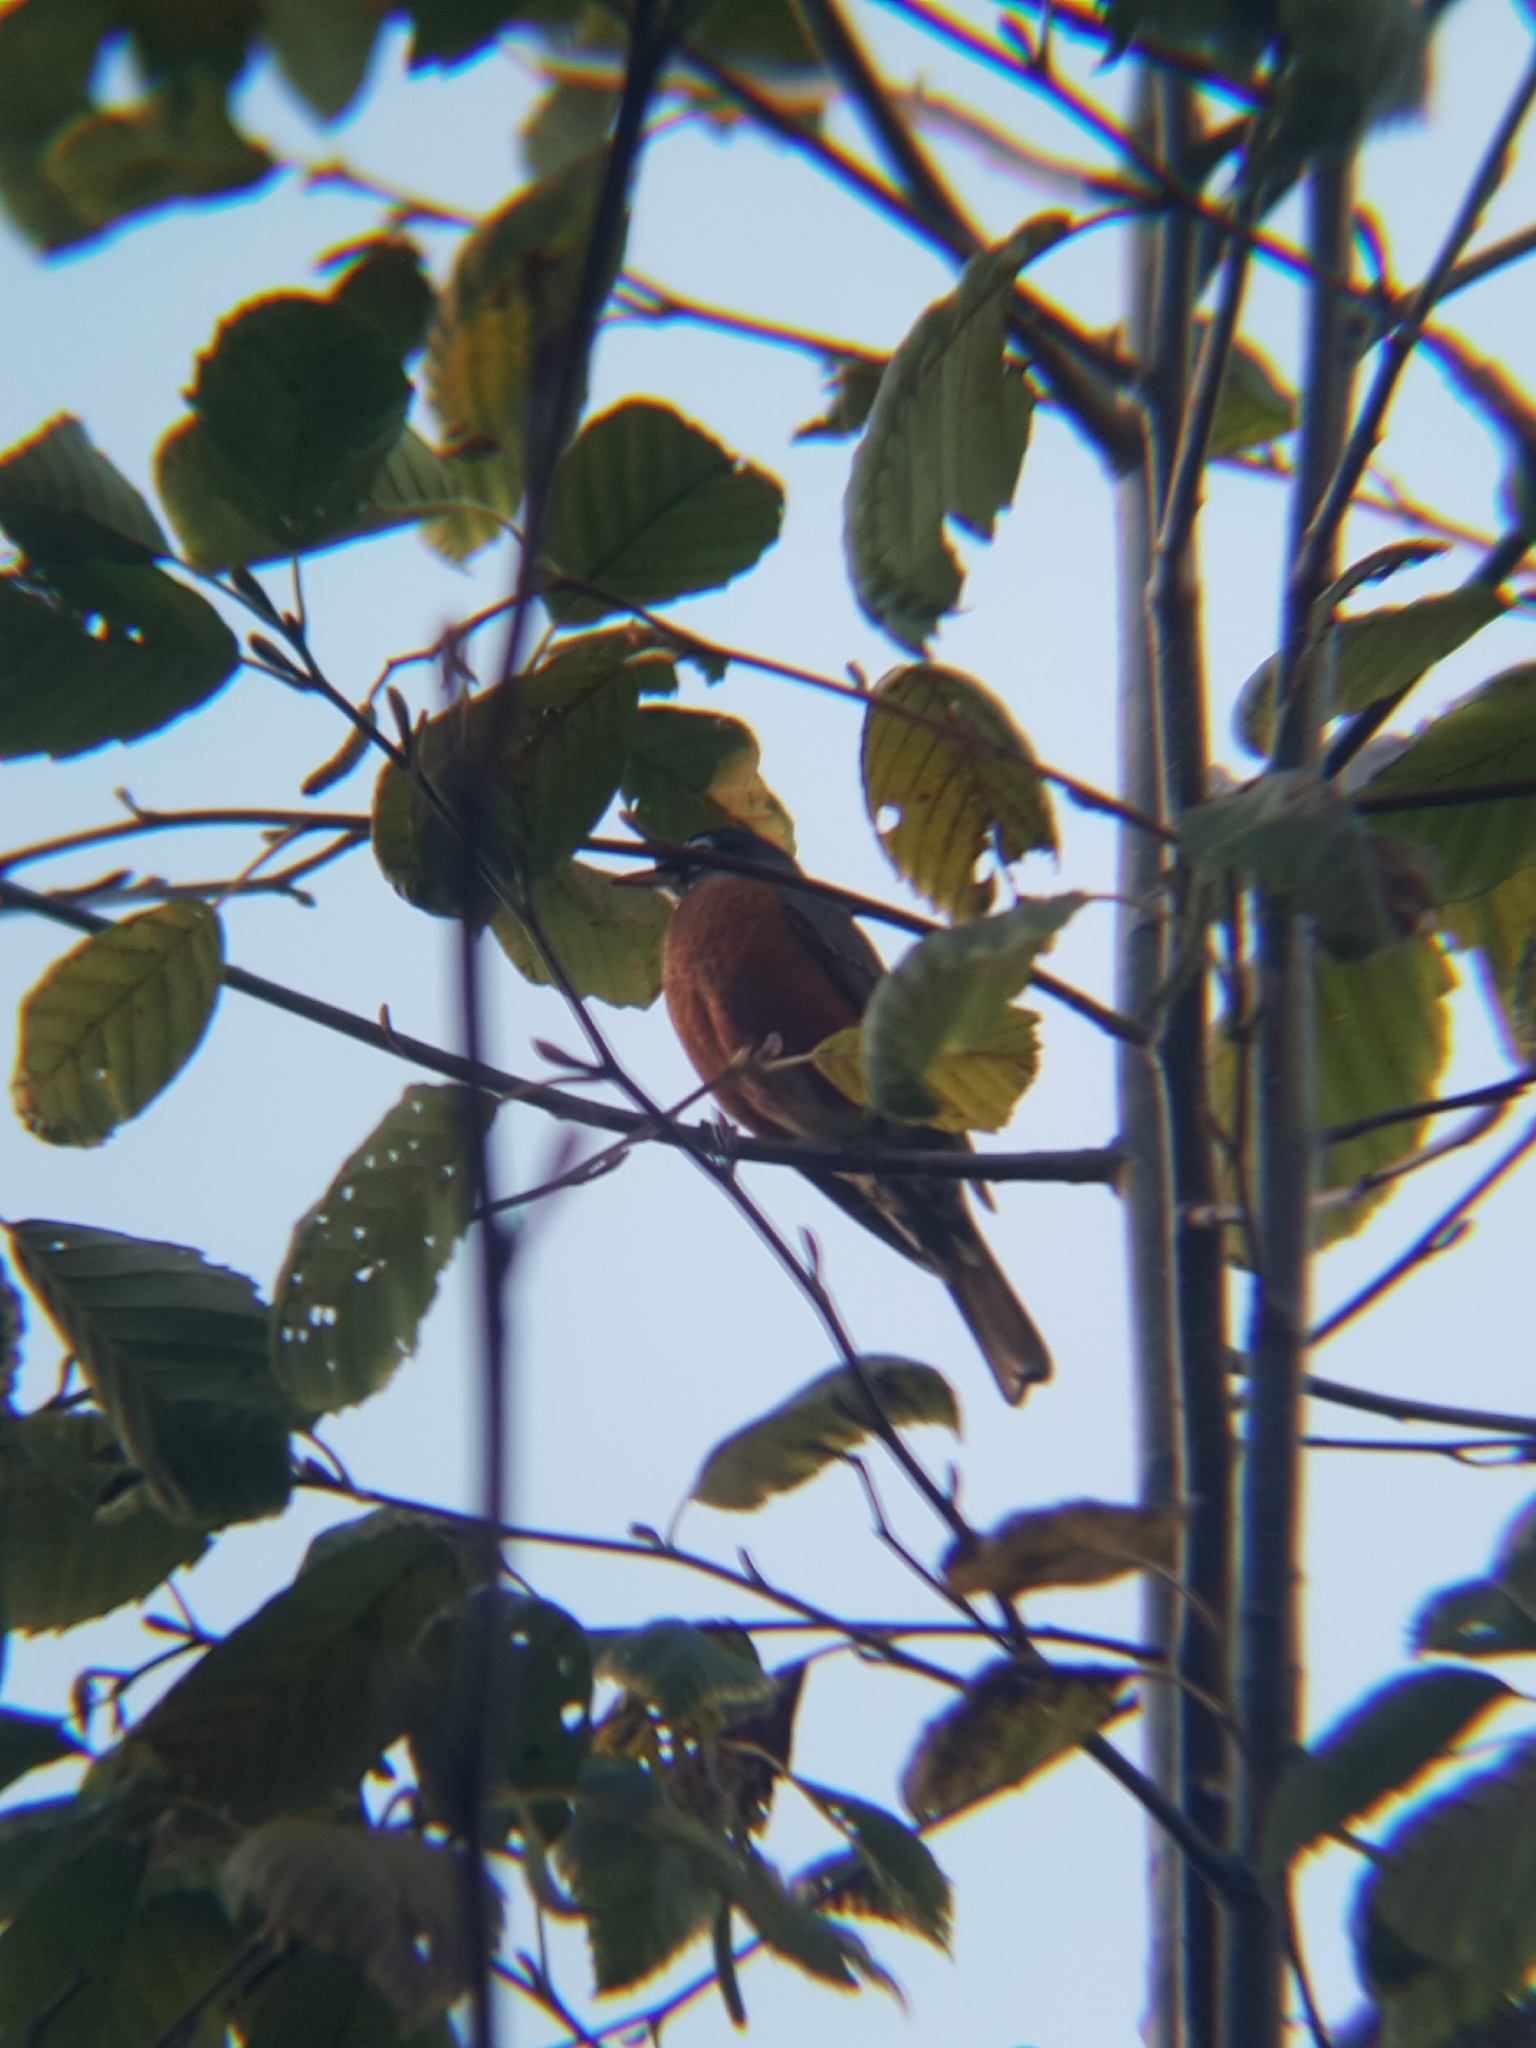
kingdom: Animalia
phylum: Chordata
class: Aves
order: Passeriformes
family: Turdidae
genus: Turdus
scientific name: Turdus migratorius
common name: American robin
